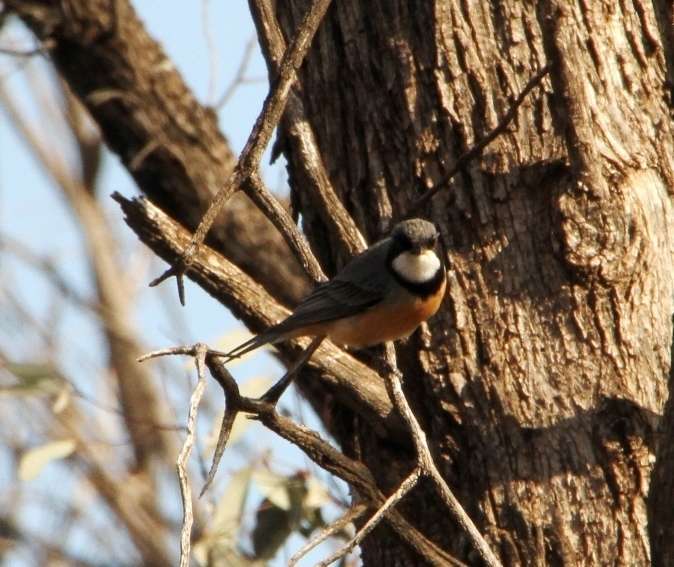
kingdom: Animalia
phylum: Chordata
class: Aves
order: Passeriformes
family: Pachycephalidae
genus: Pachycephala
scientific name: Pachycephala rufiventris
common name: Rufous whistler
